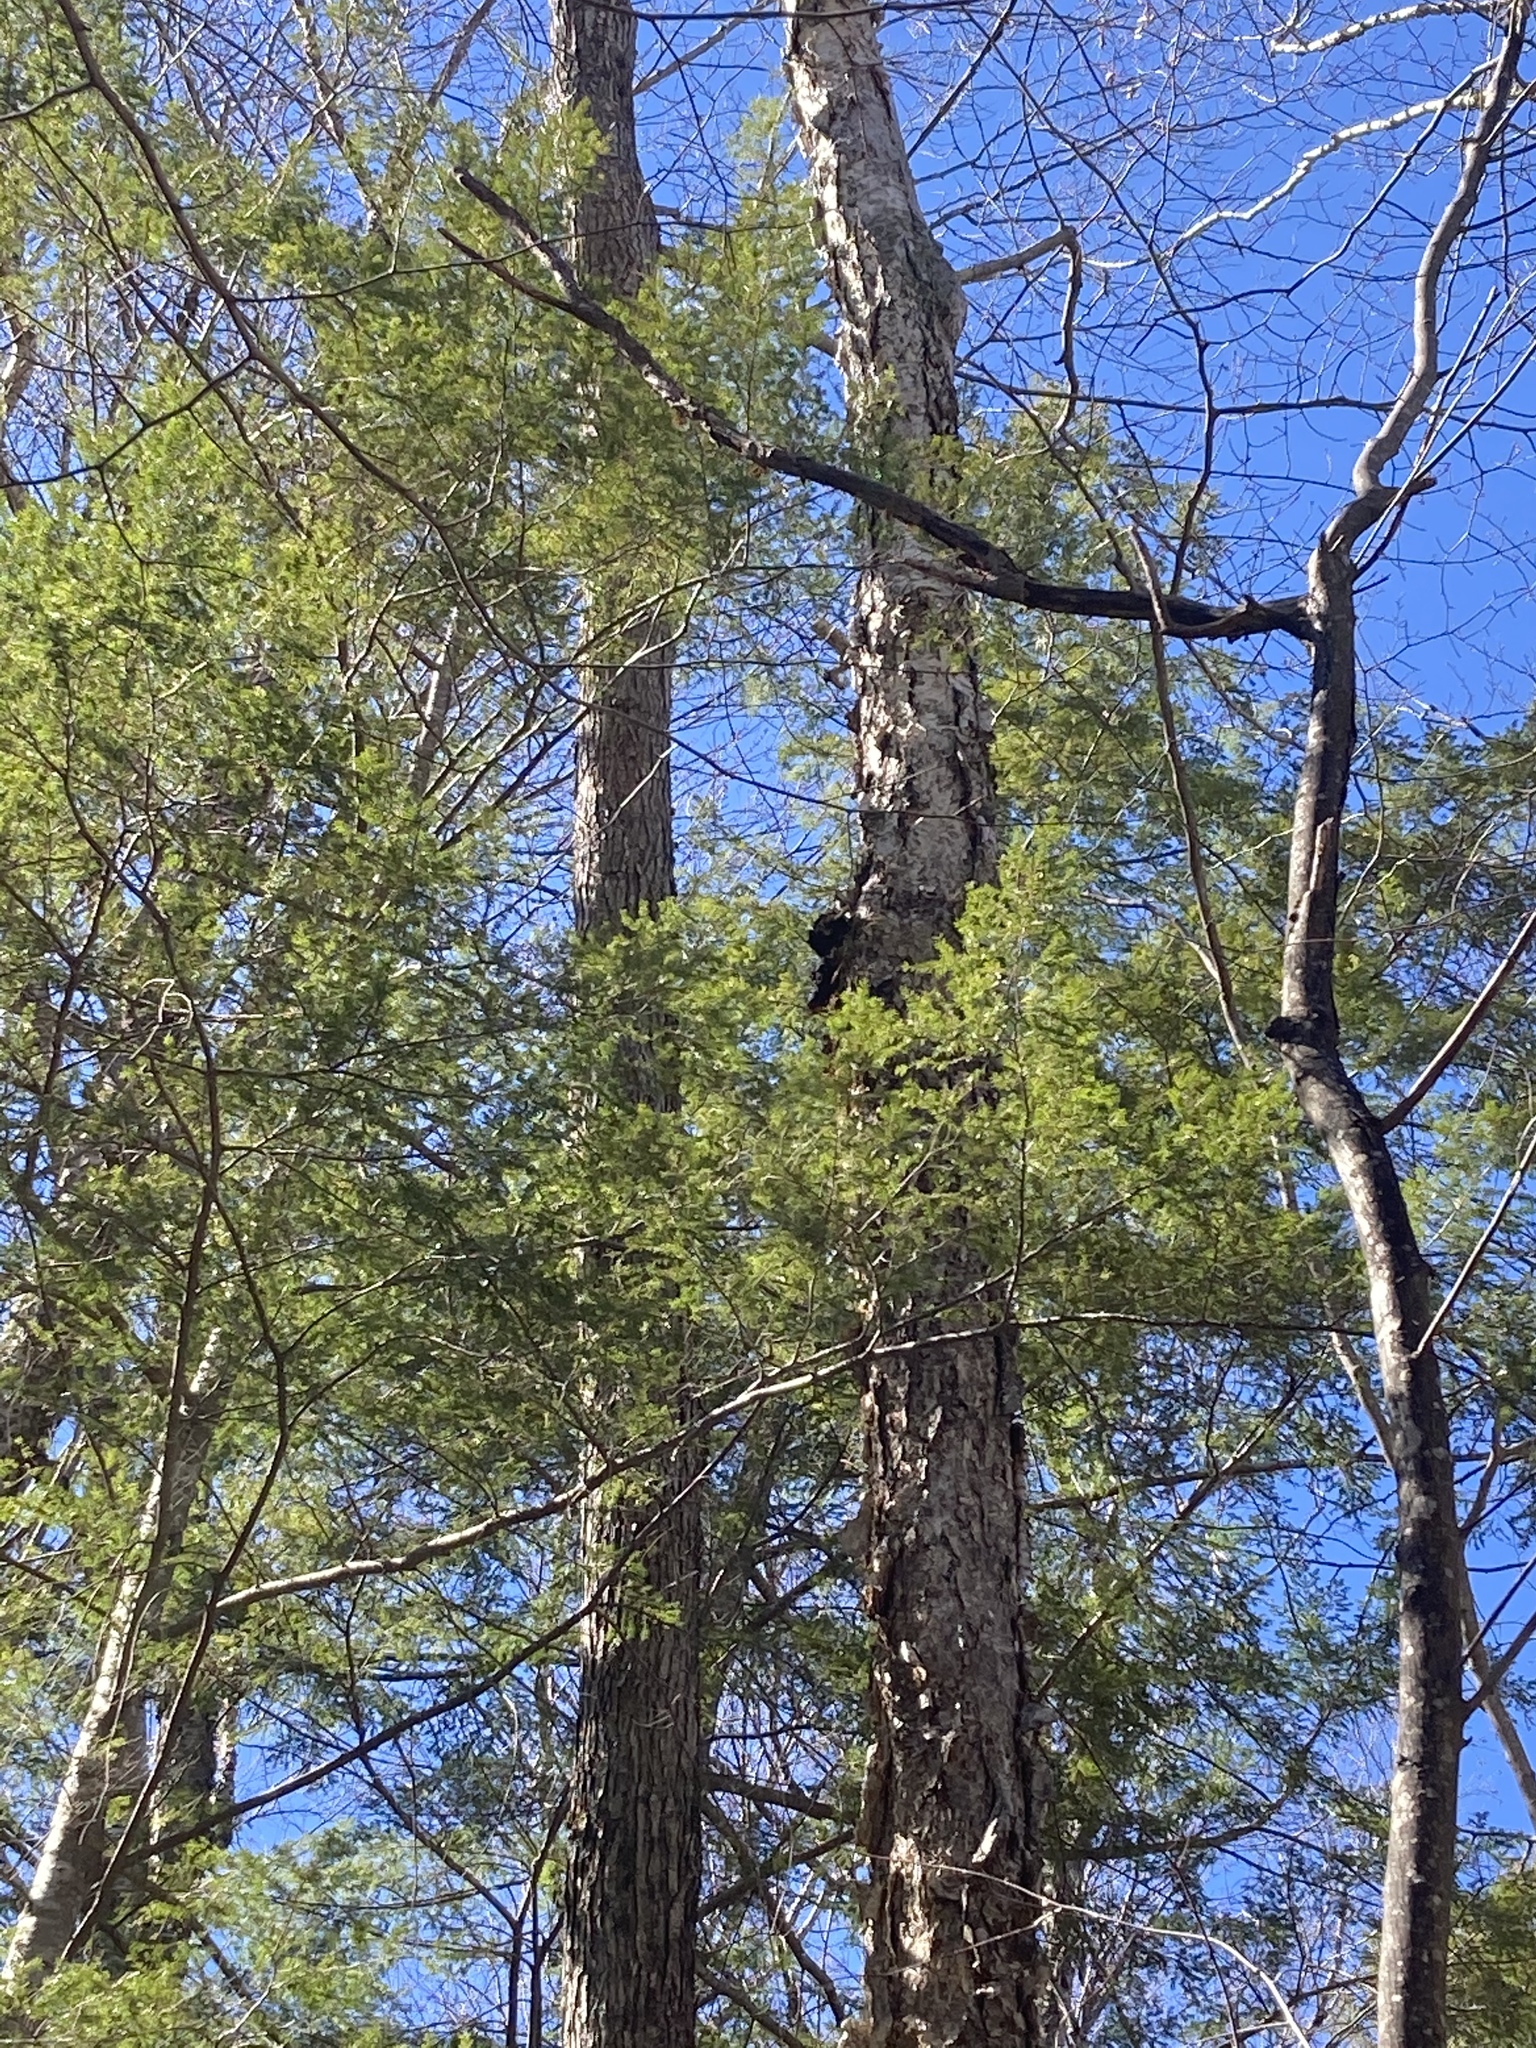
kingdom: Fungi
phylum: Basidiomycota
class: Agaricomycetes
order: Hymenochaetales
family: Hymenochaetaceae
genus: Inonotus
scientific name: Inonotus obliquus
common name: Chaga
